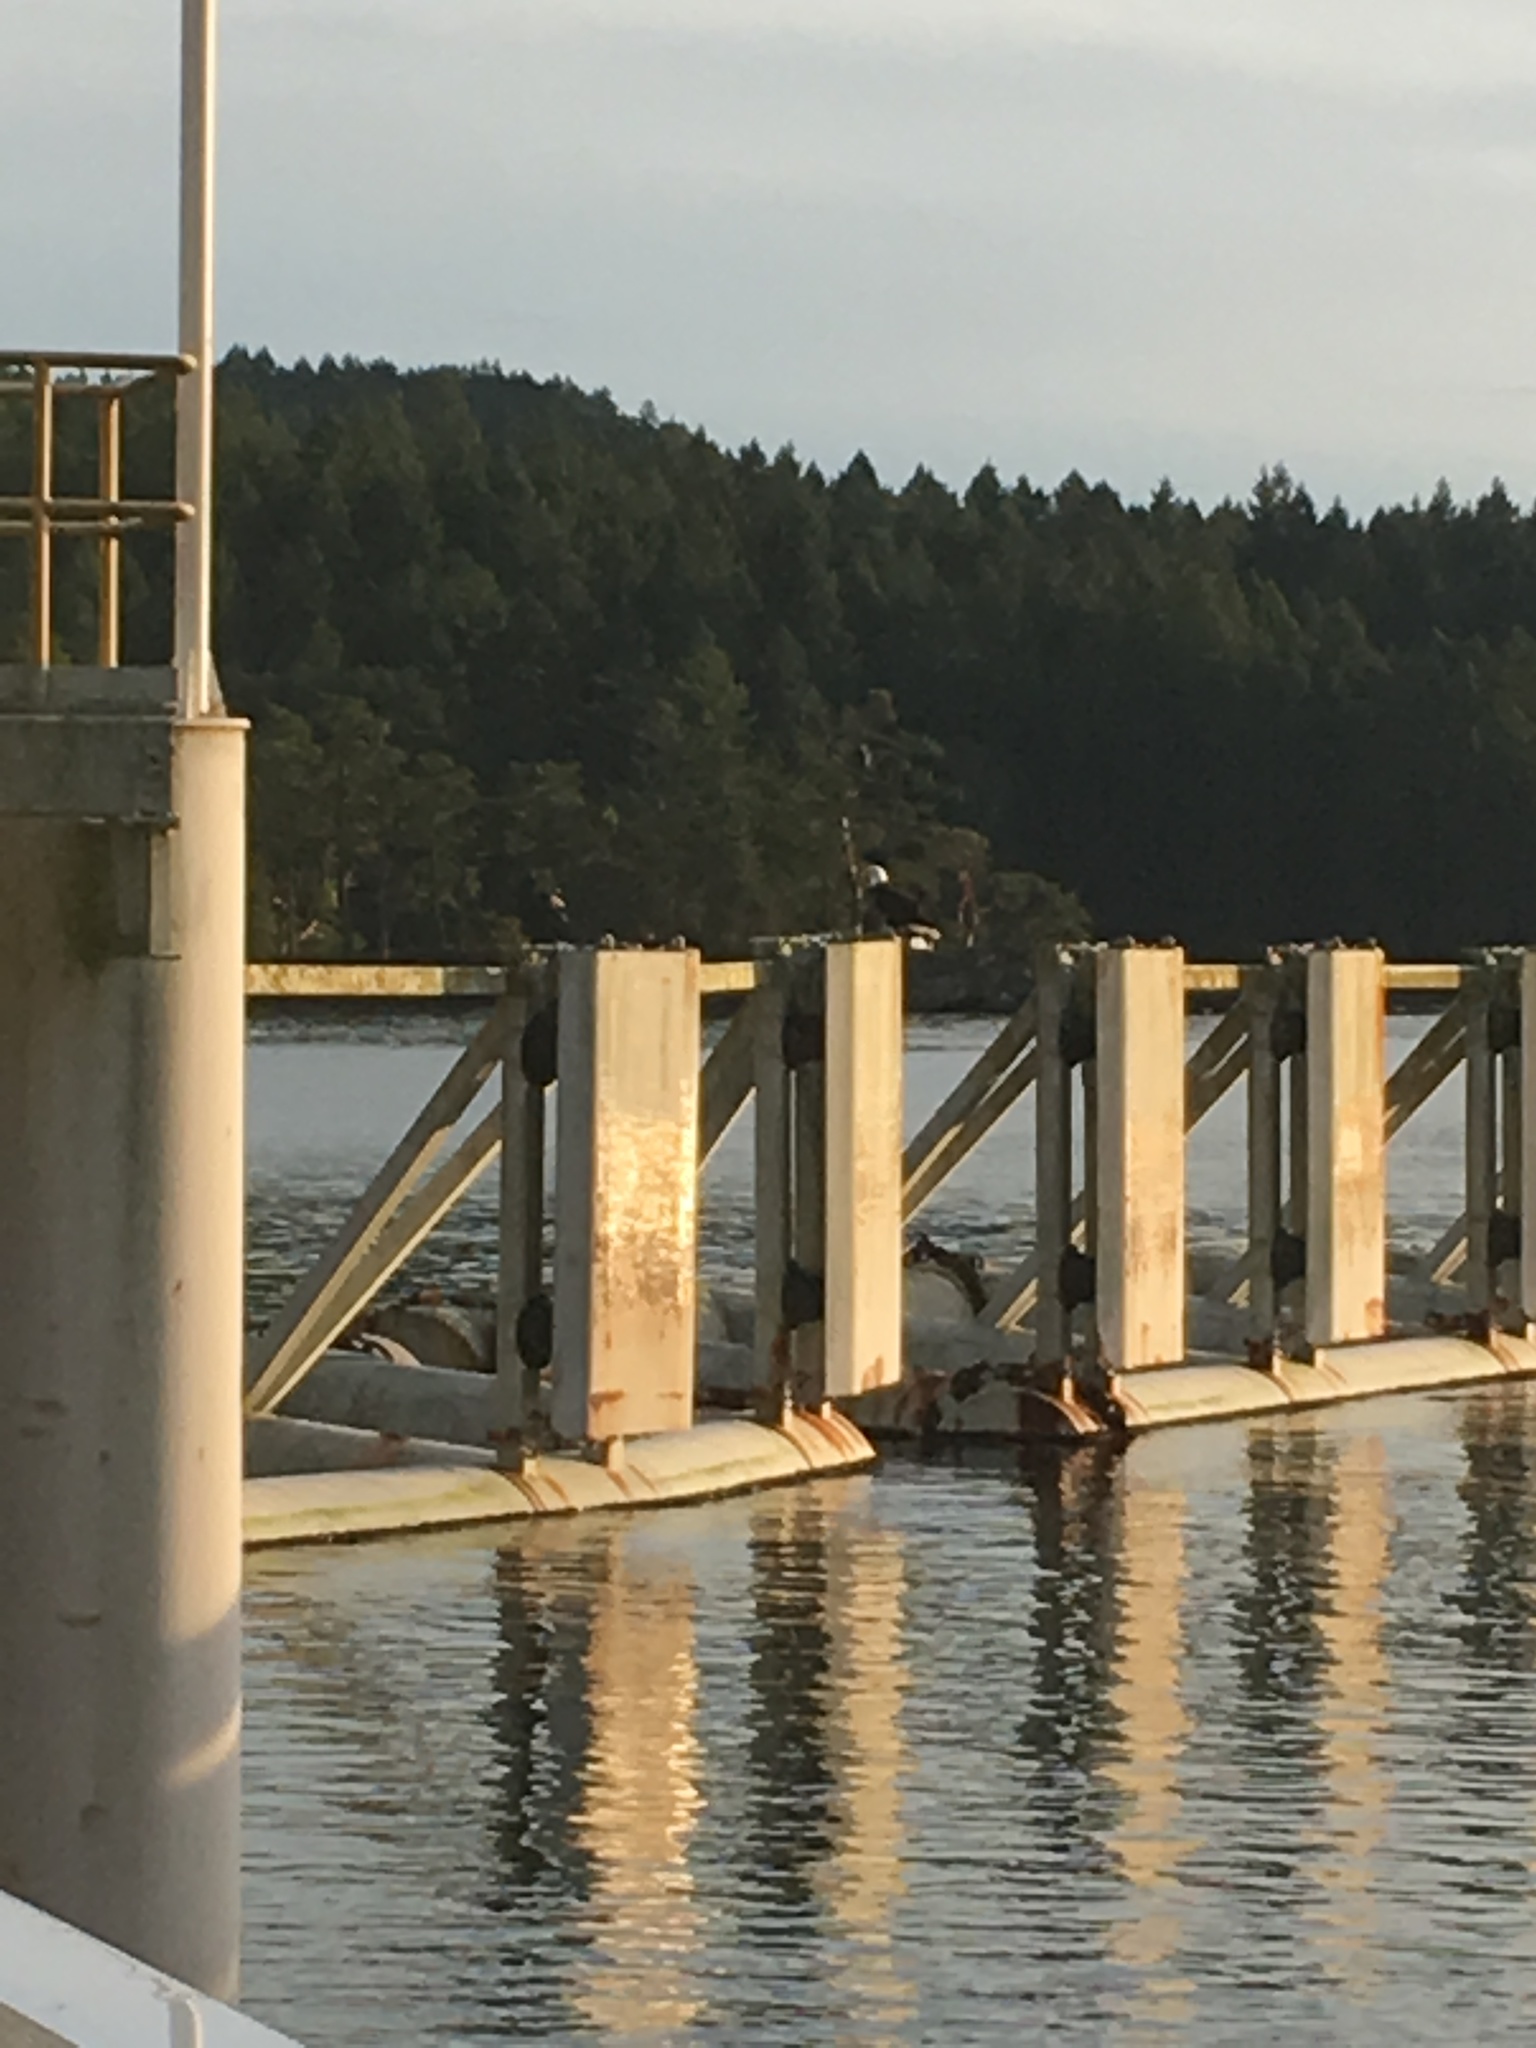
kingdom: Animalia
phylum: Chordata
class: Aves
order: Accipitriformes
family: Accipitridae
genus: Haliaeetus
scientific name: Haliaeetus leucocephalus
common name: Bald eagle
